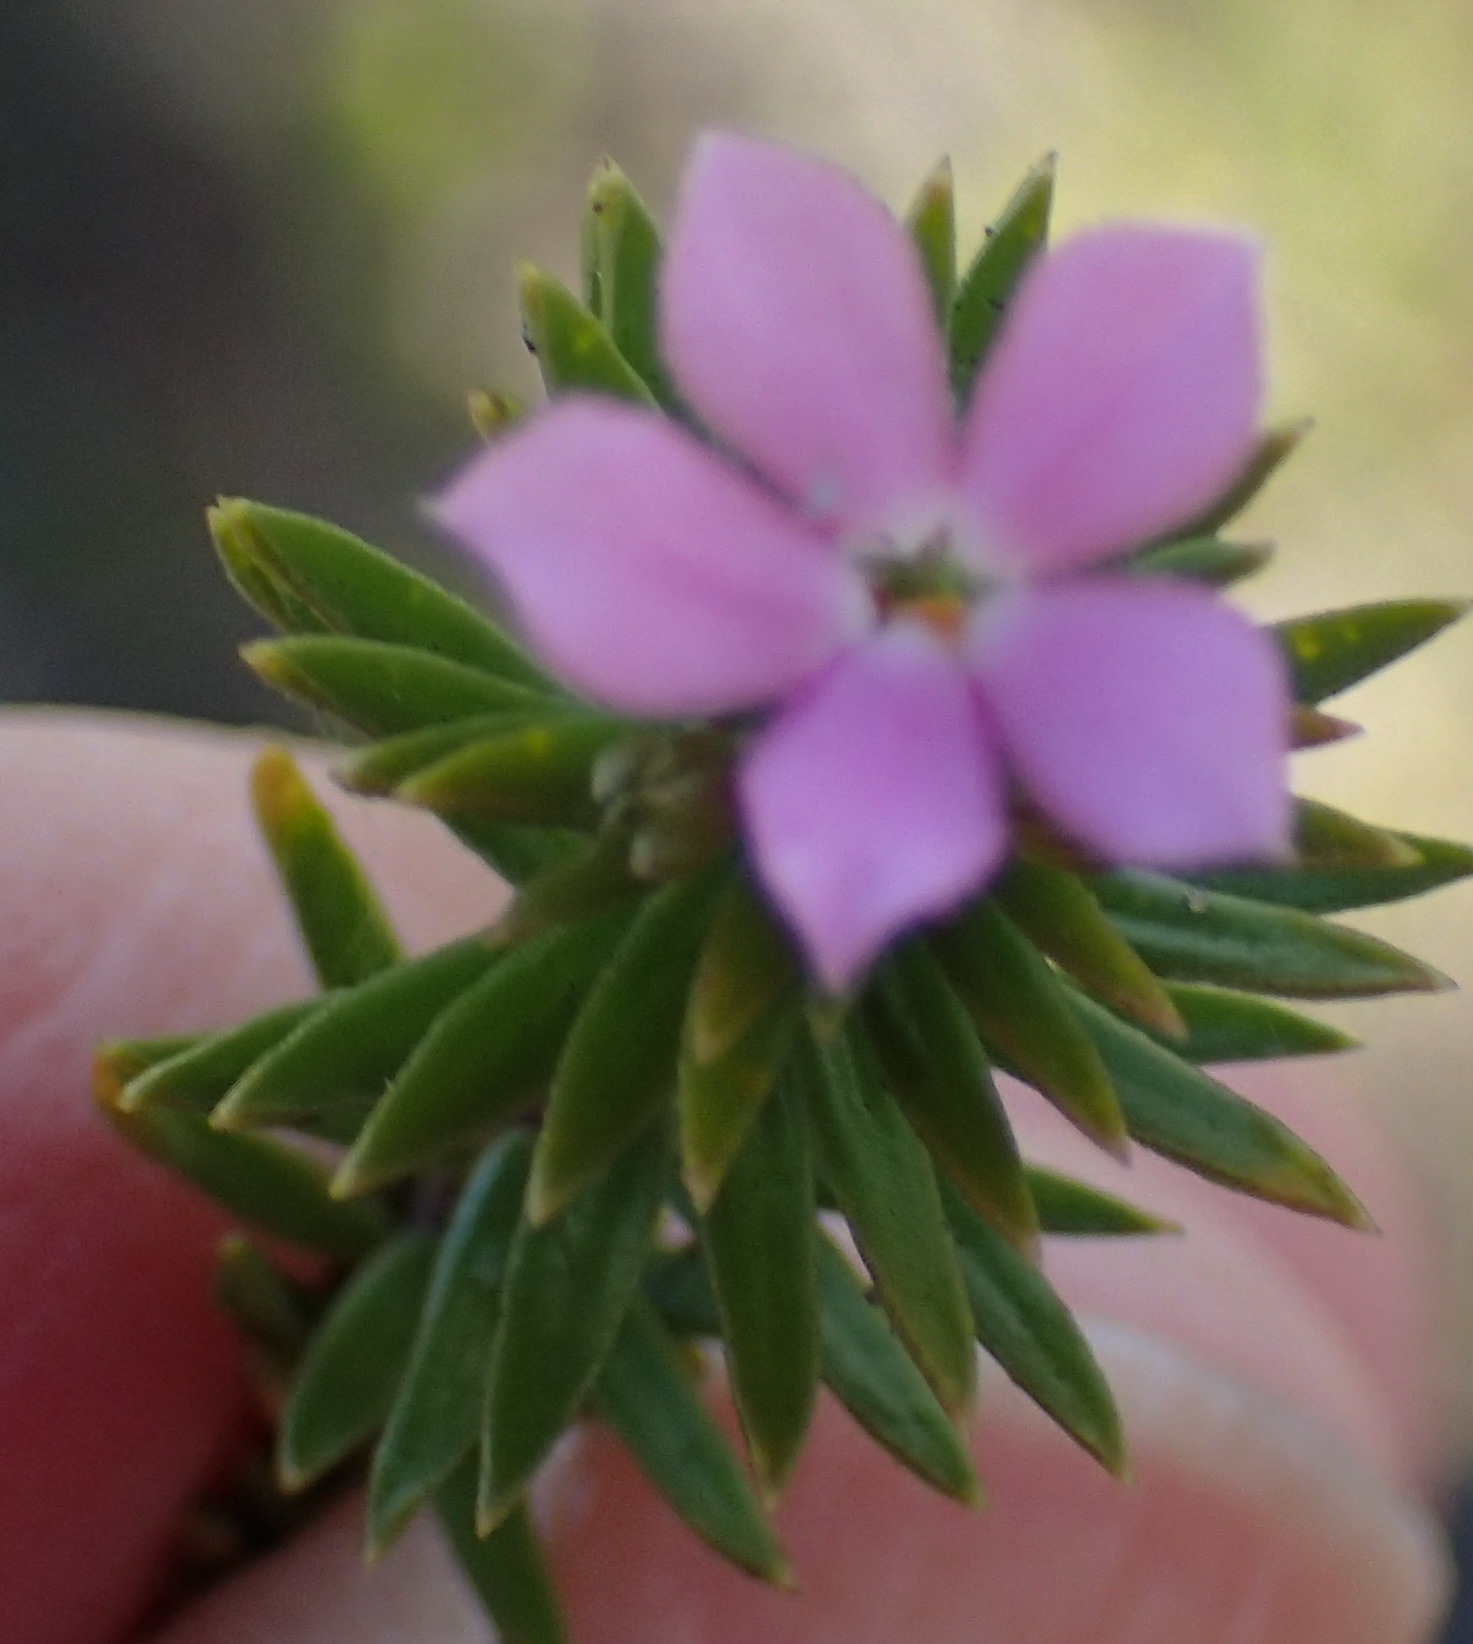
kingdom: Plantae
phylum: Tracheophyta
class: Magnoliopsida
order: Sapindales
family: Rutaceae
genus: Acmadenia
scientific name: Acmadenia alternifolia
